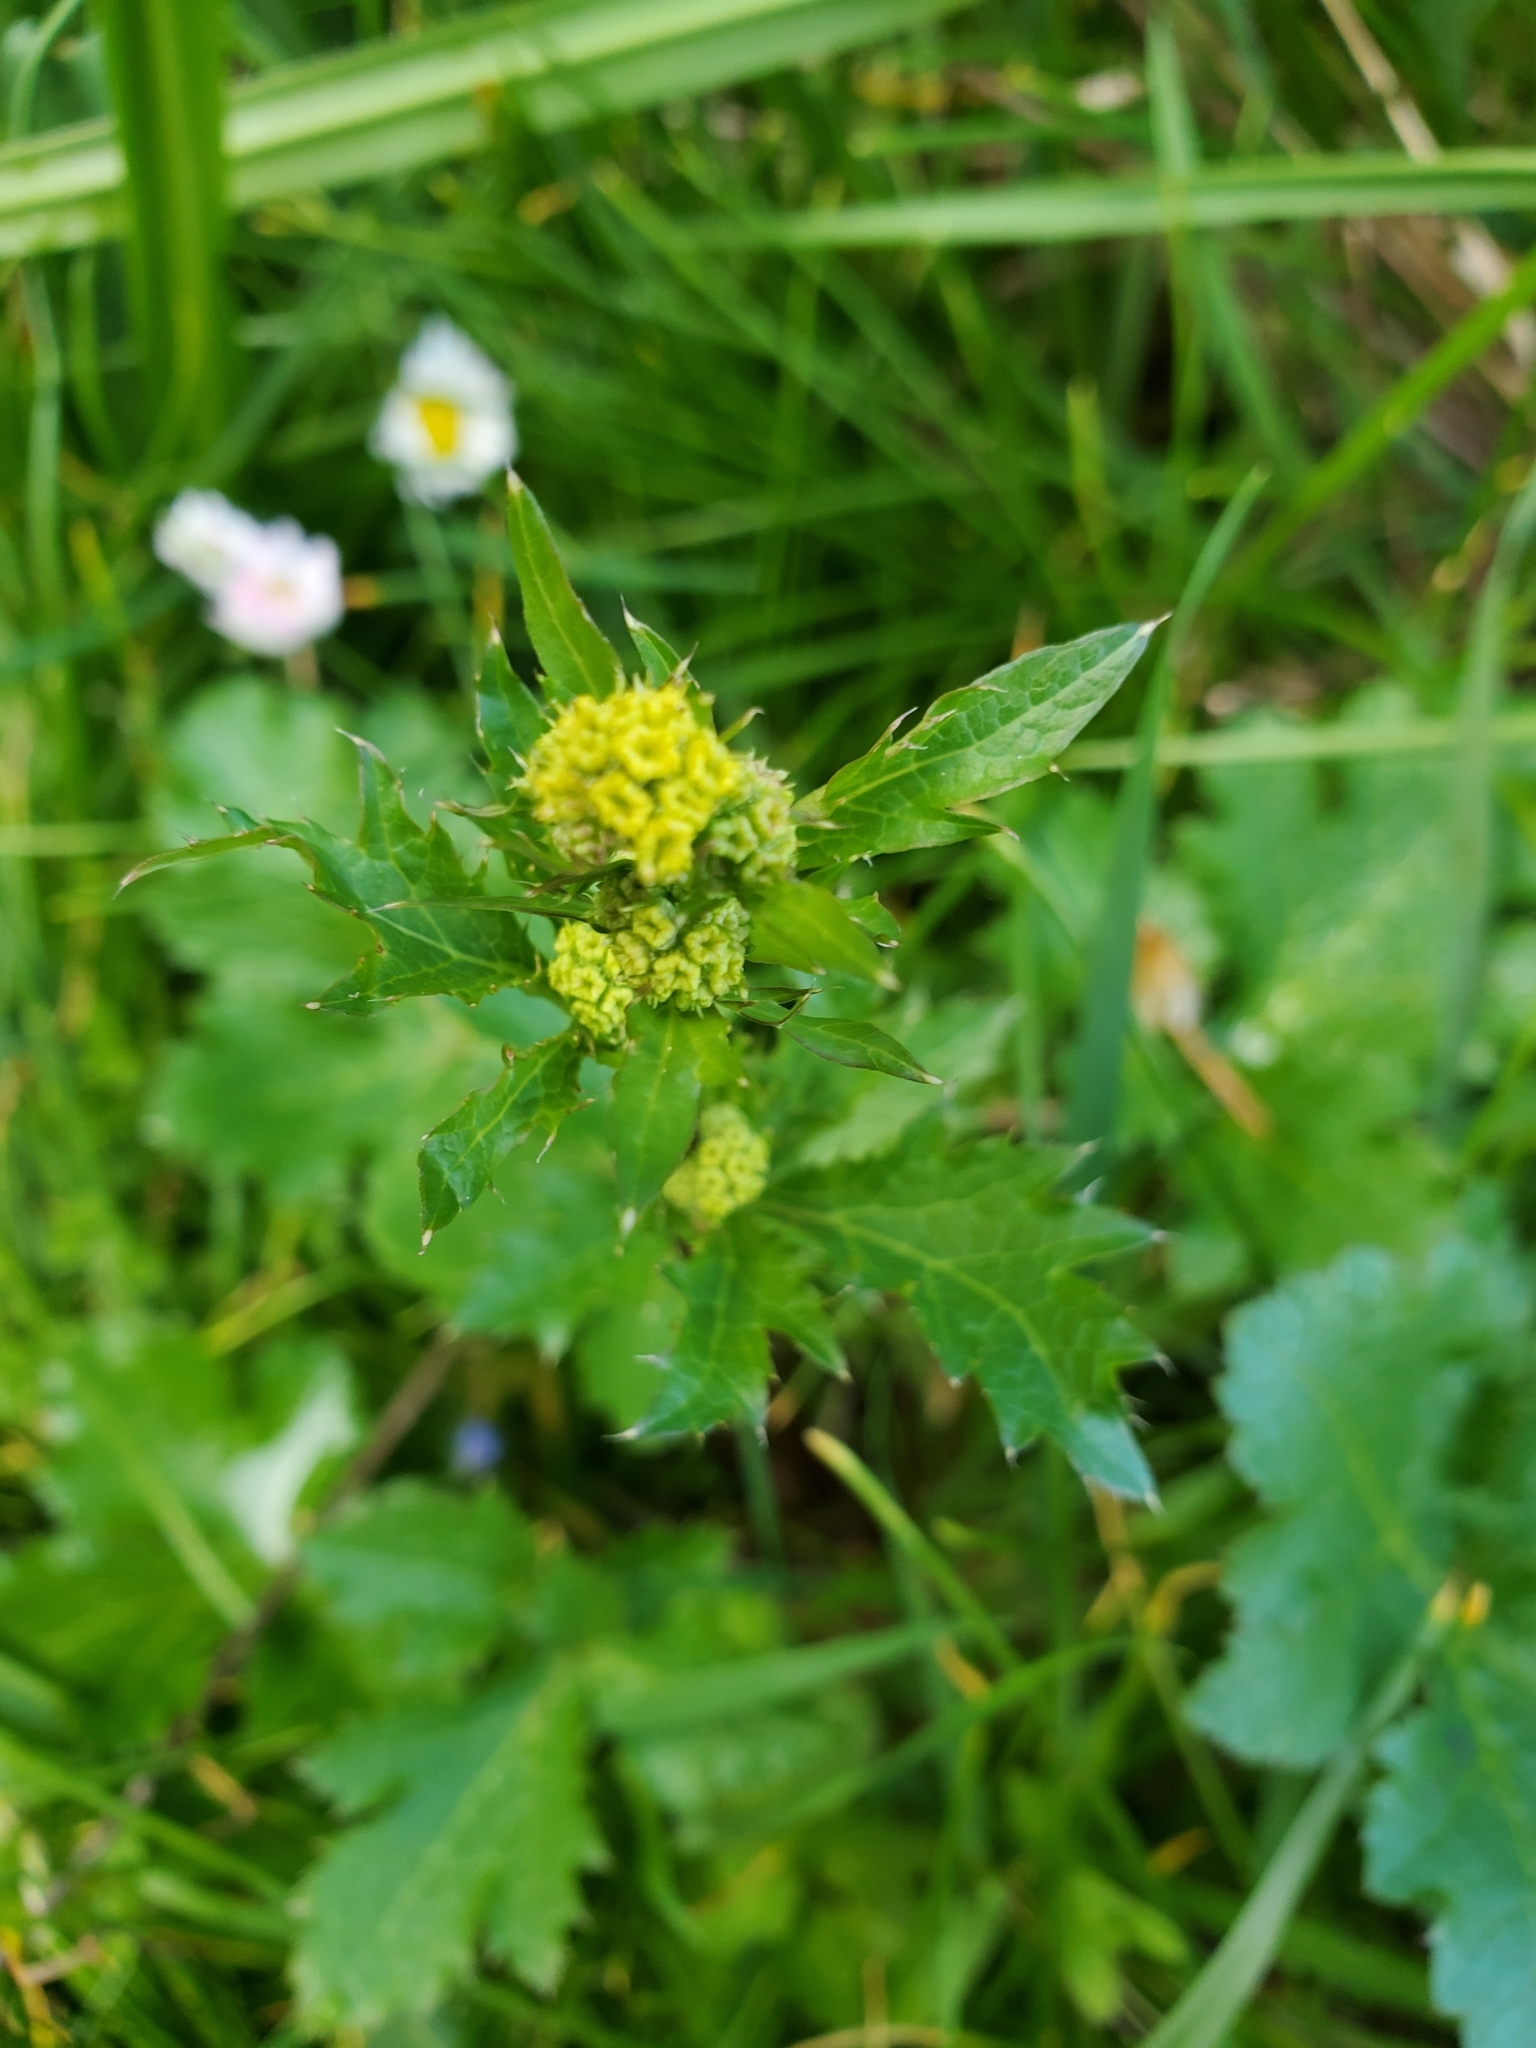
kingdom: Plantae
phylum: Tracheophyta
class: Magnoliopsida
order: Apiales
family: Apiaceae
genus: Sanicula
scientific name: Sanicula crassicaulis
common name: Western snakeroot
